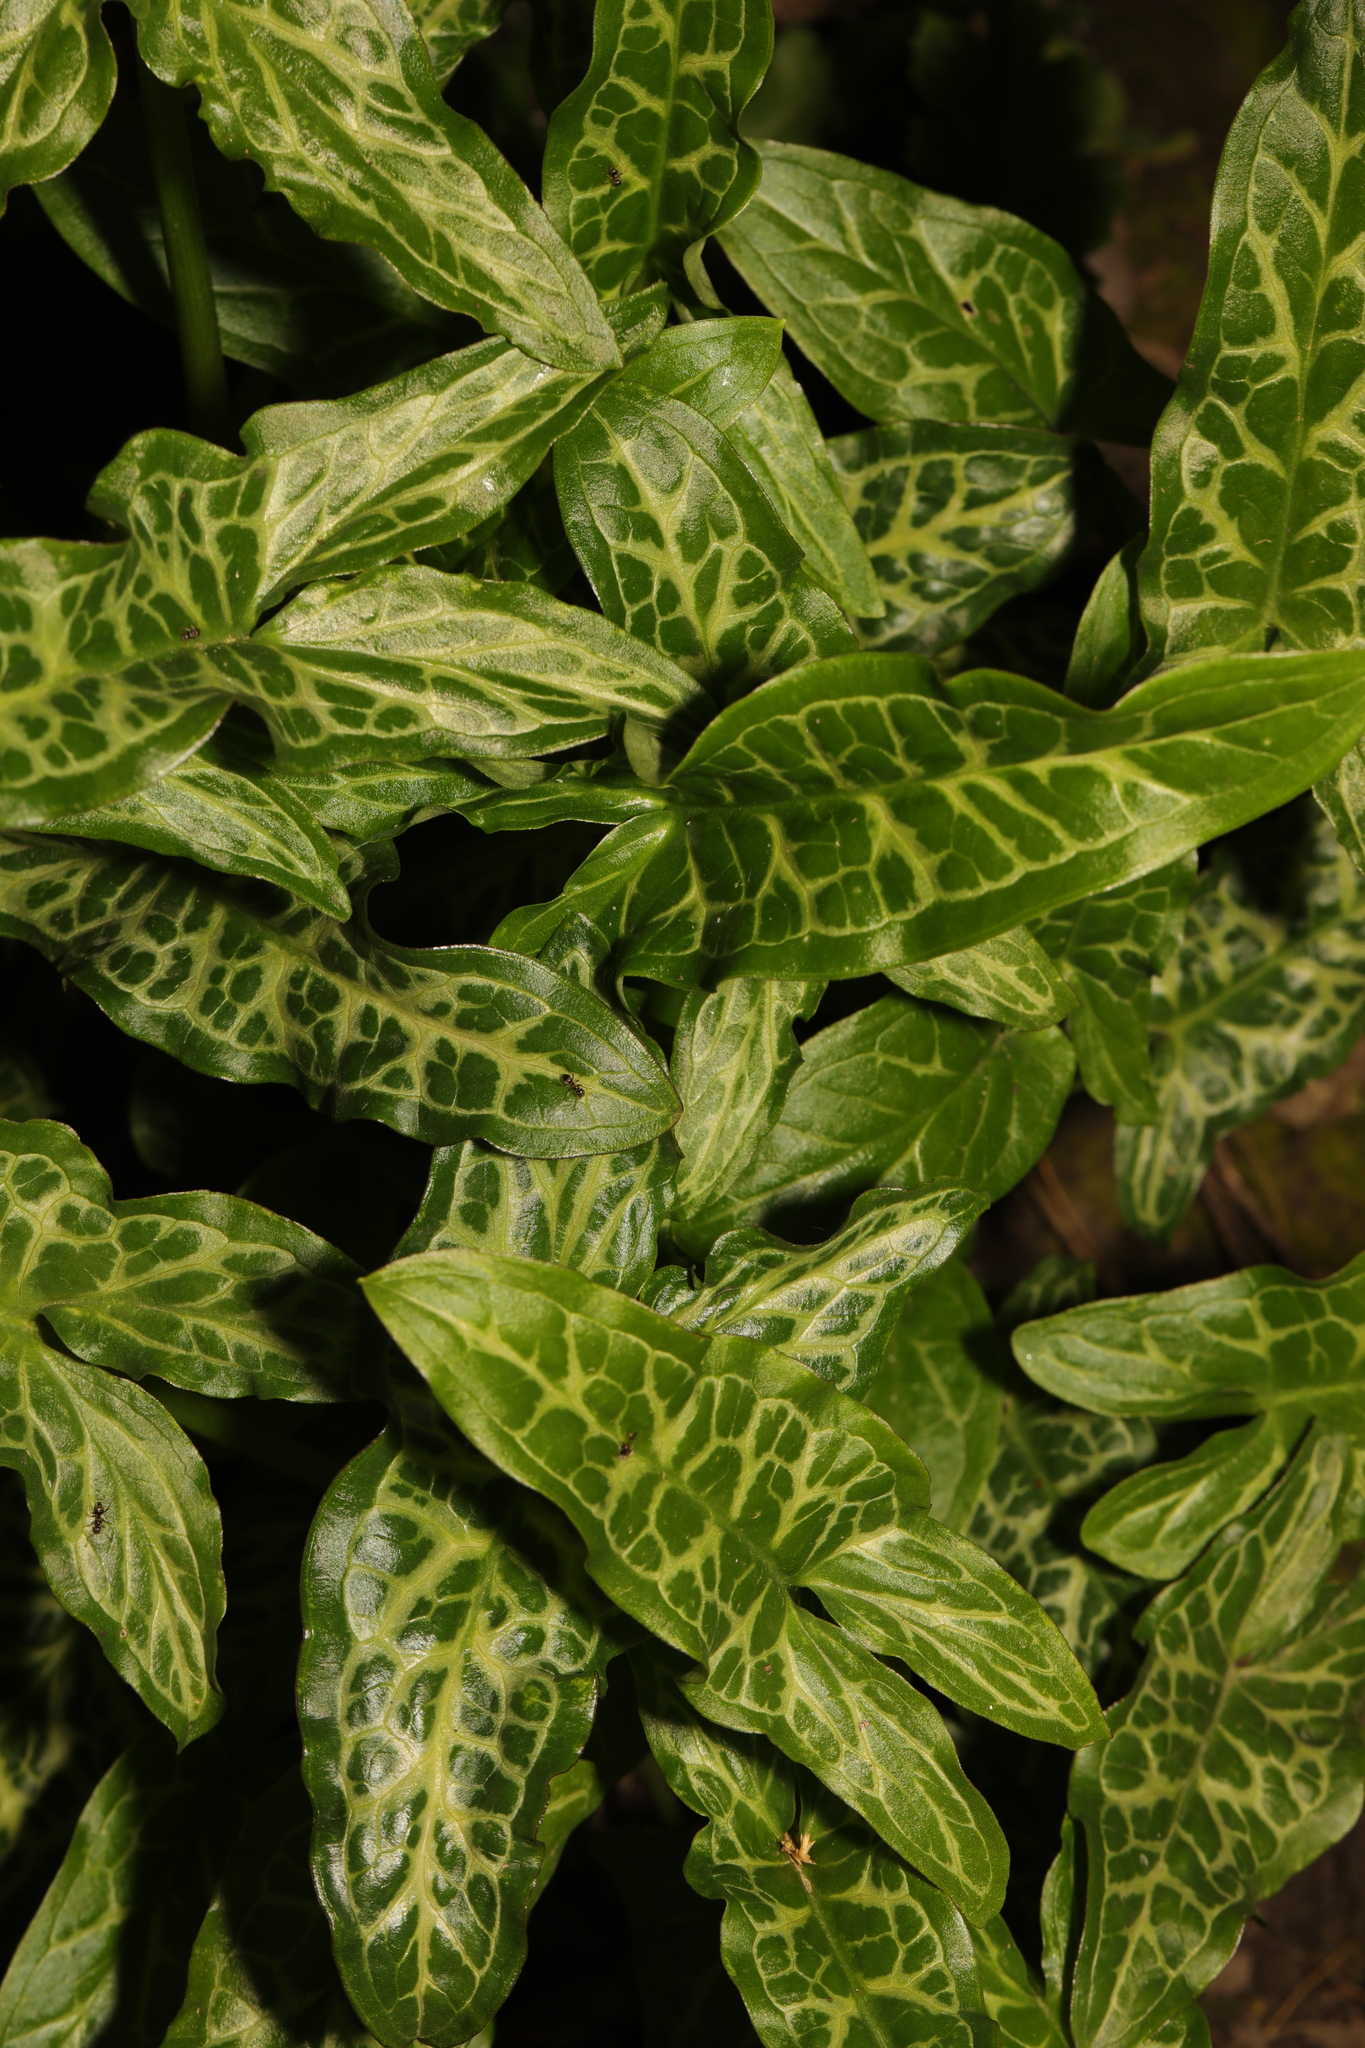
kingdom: Plantae
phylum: Tracheophyta
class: Liliopsida
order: Alismatales
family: Araceae
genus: Arum
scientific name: Arum italicum
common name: Italian lords-and-ladies
